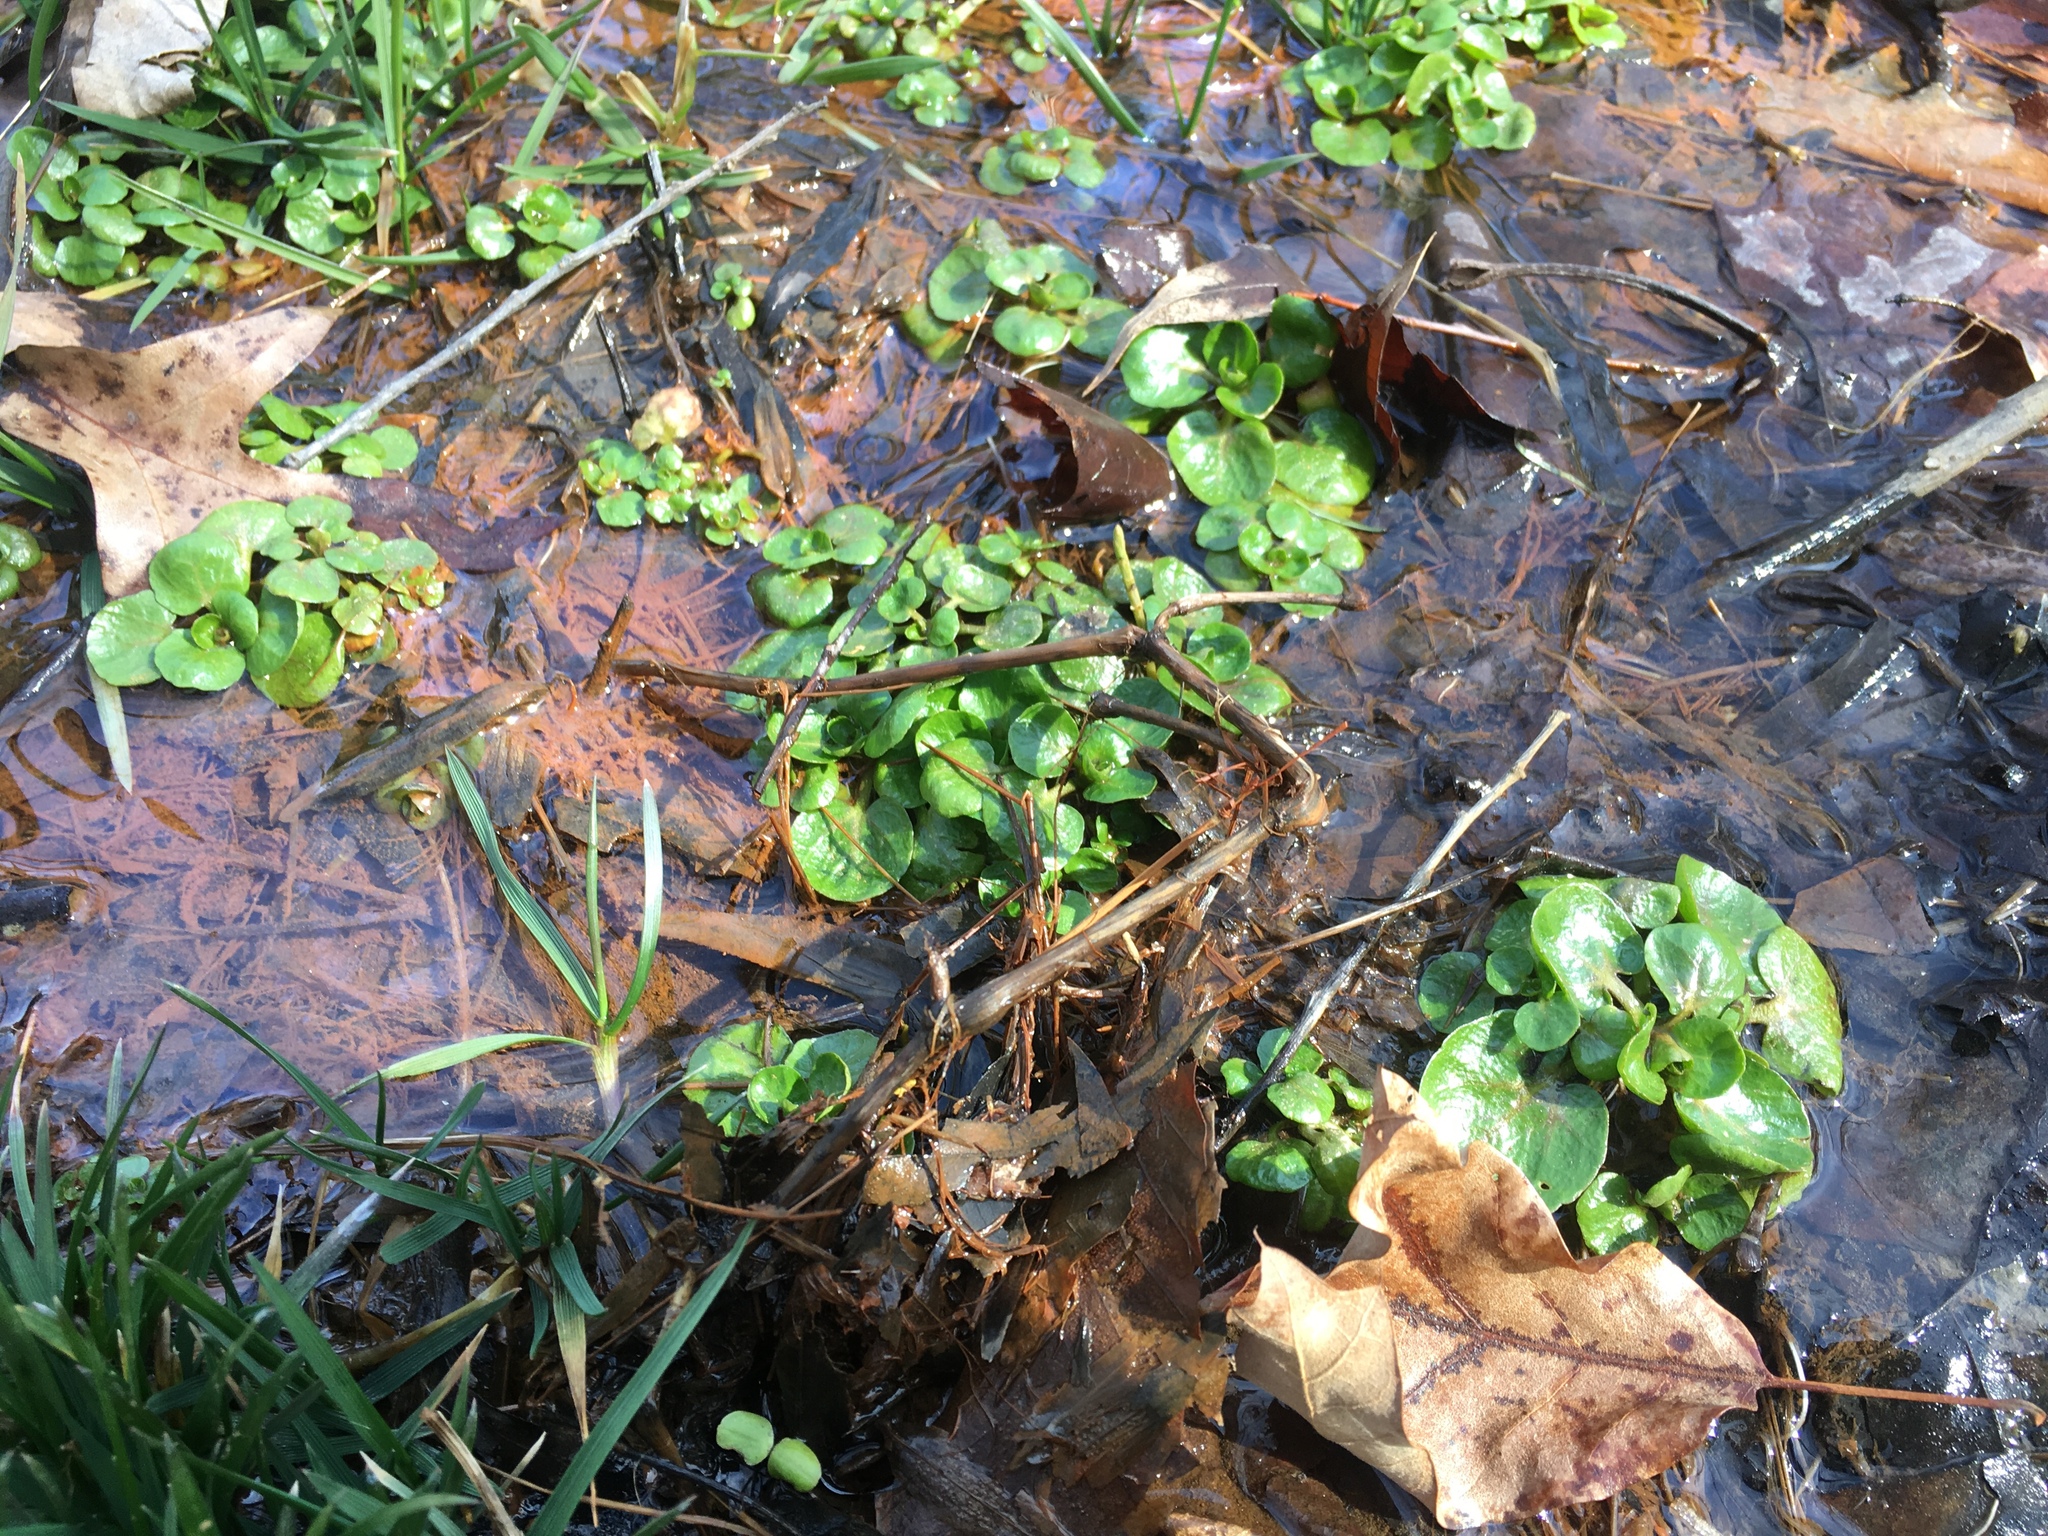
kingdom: Plantae
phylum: Tracheophyta
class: Magnoliopsida
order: Brassicales
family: Brassicaceae
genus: Nasturtium
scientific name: Nasturtium officinale
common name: Watercress
